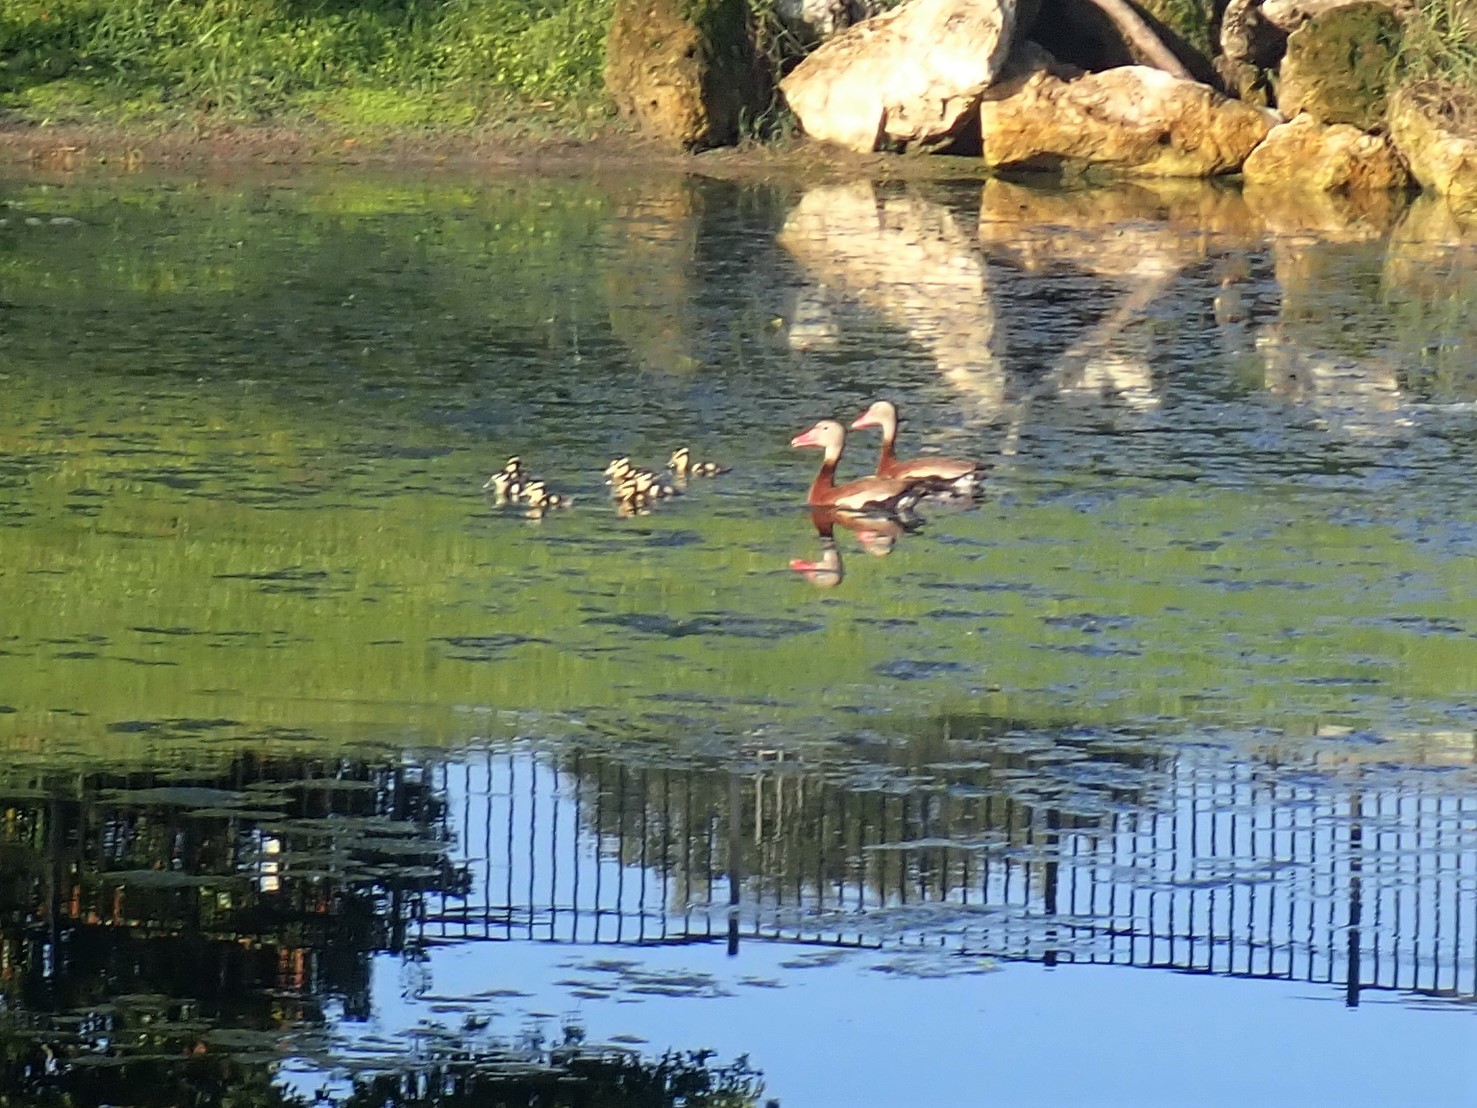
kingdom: Animalia
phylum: Chordata
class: Aves
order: Anseriformes
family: Anatidae
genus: Dendrocygna
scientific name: Dendrocygna autumnalis
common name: Black-bellied whistling duck
